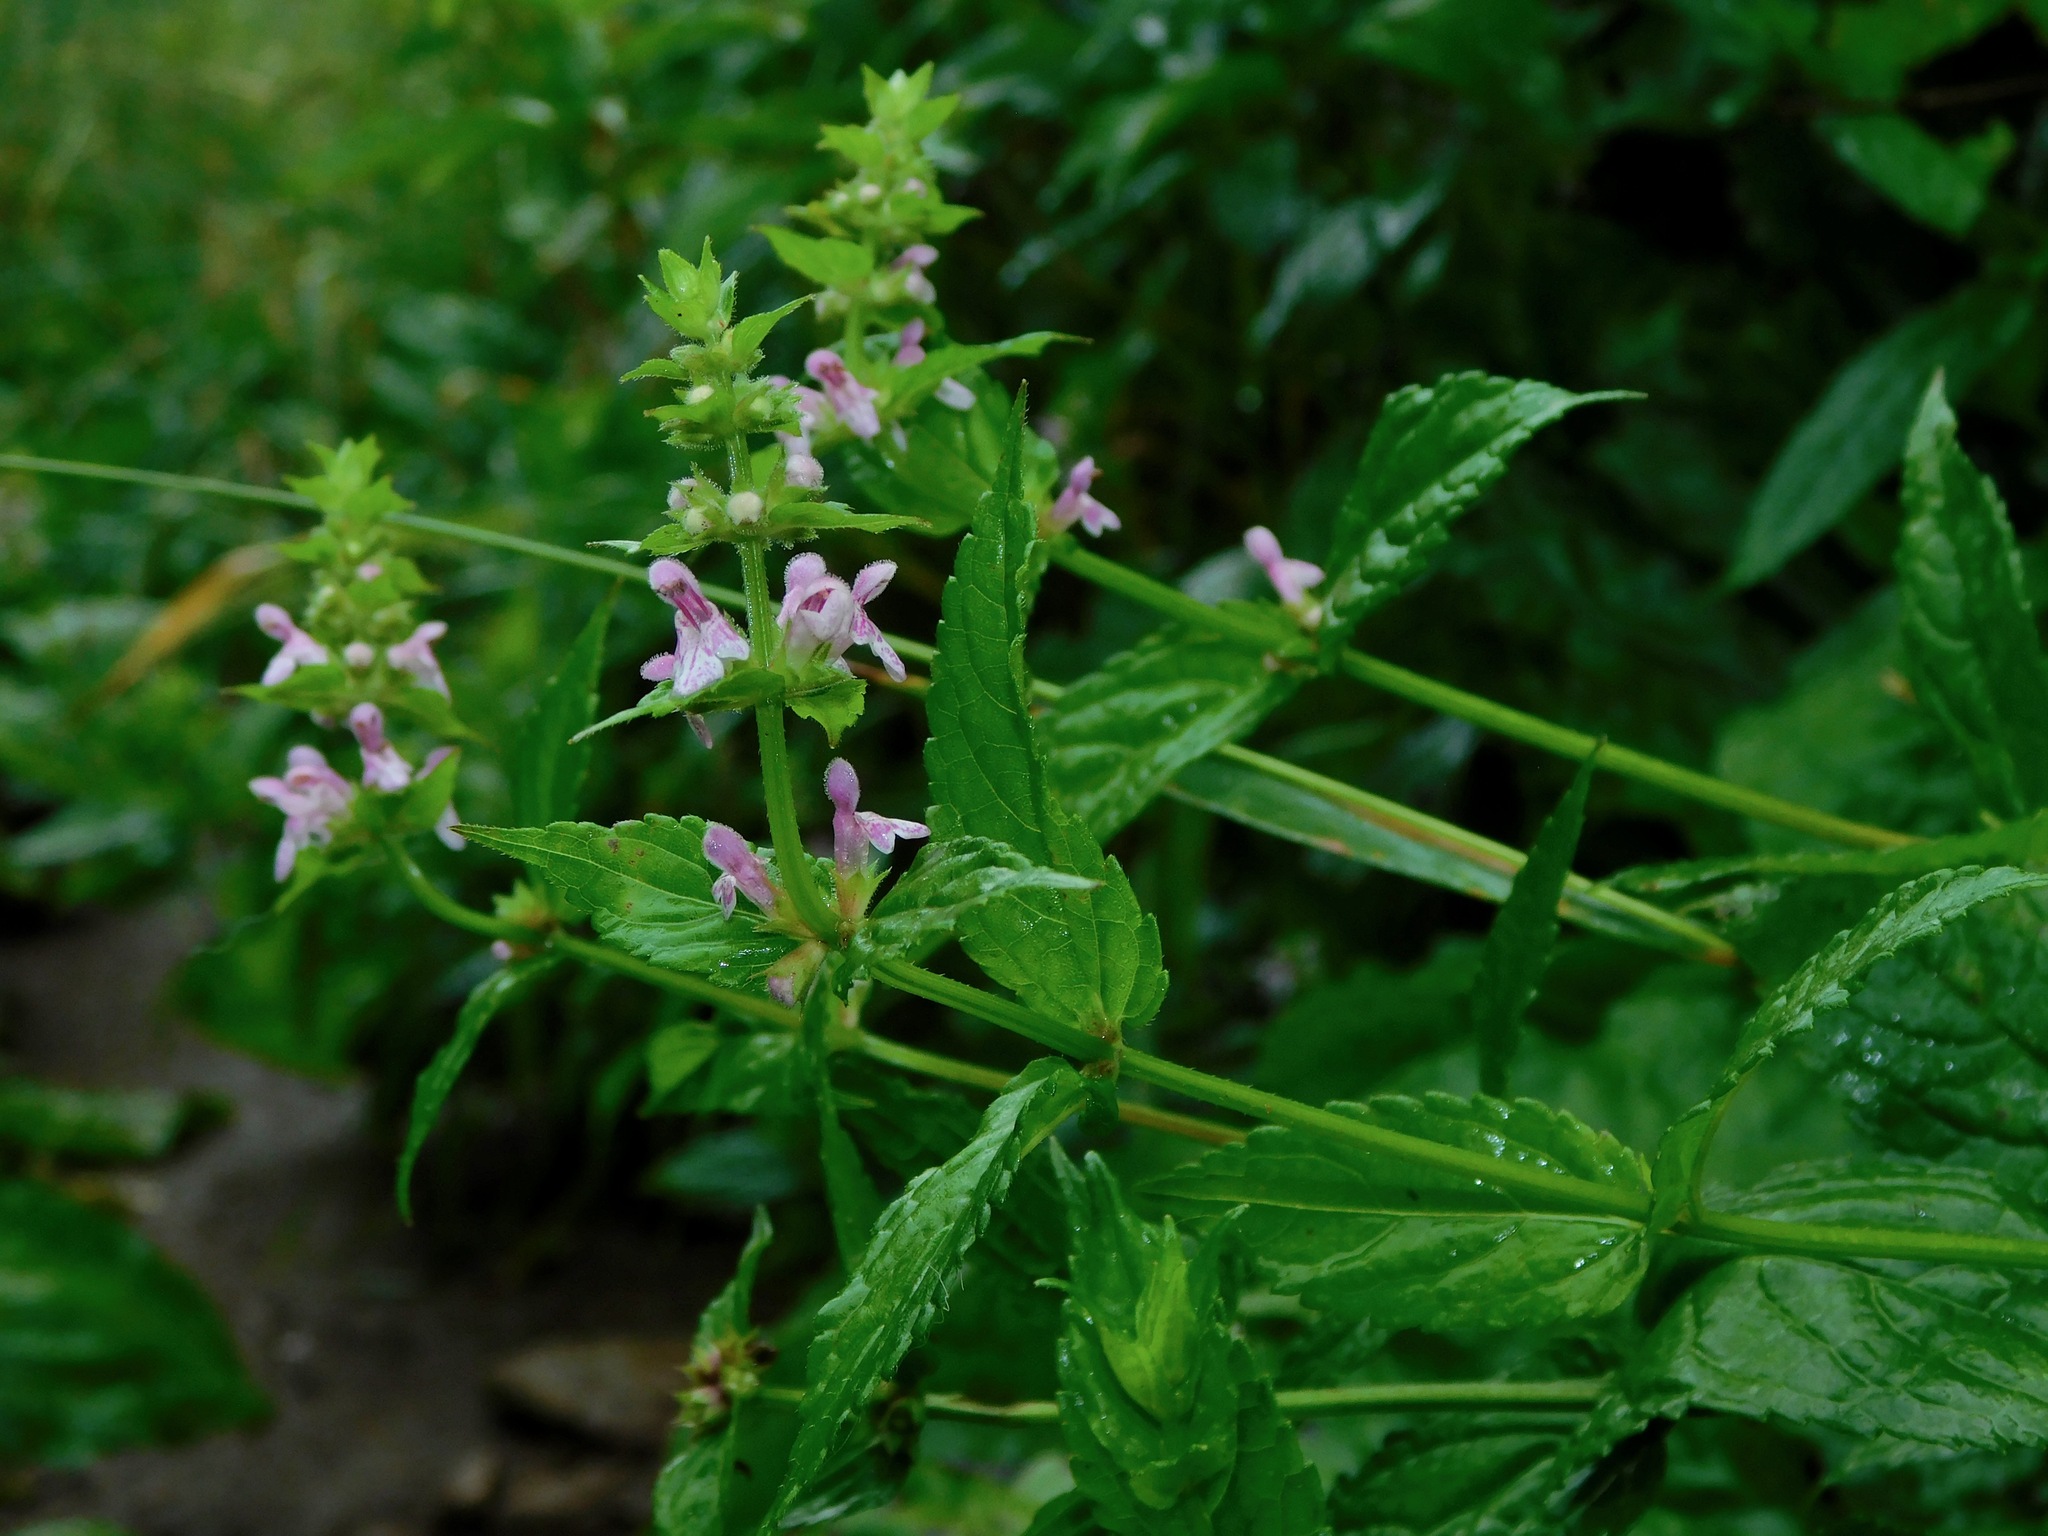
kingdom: Plantae
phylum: Tracheophyta
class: Magnoliopsida
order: Lamiales
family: Lamiaceae
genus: Teucrium
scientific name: Teucrium canadense
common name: American germander
